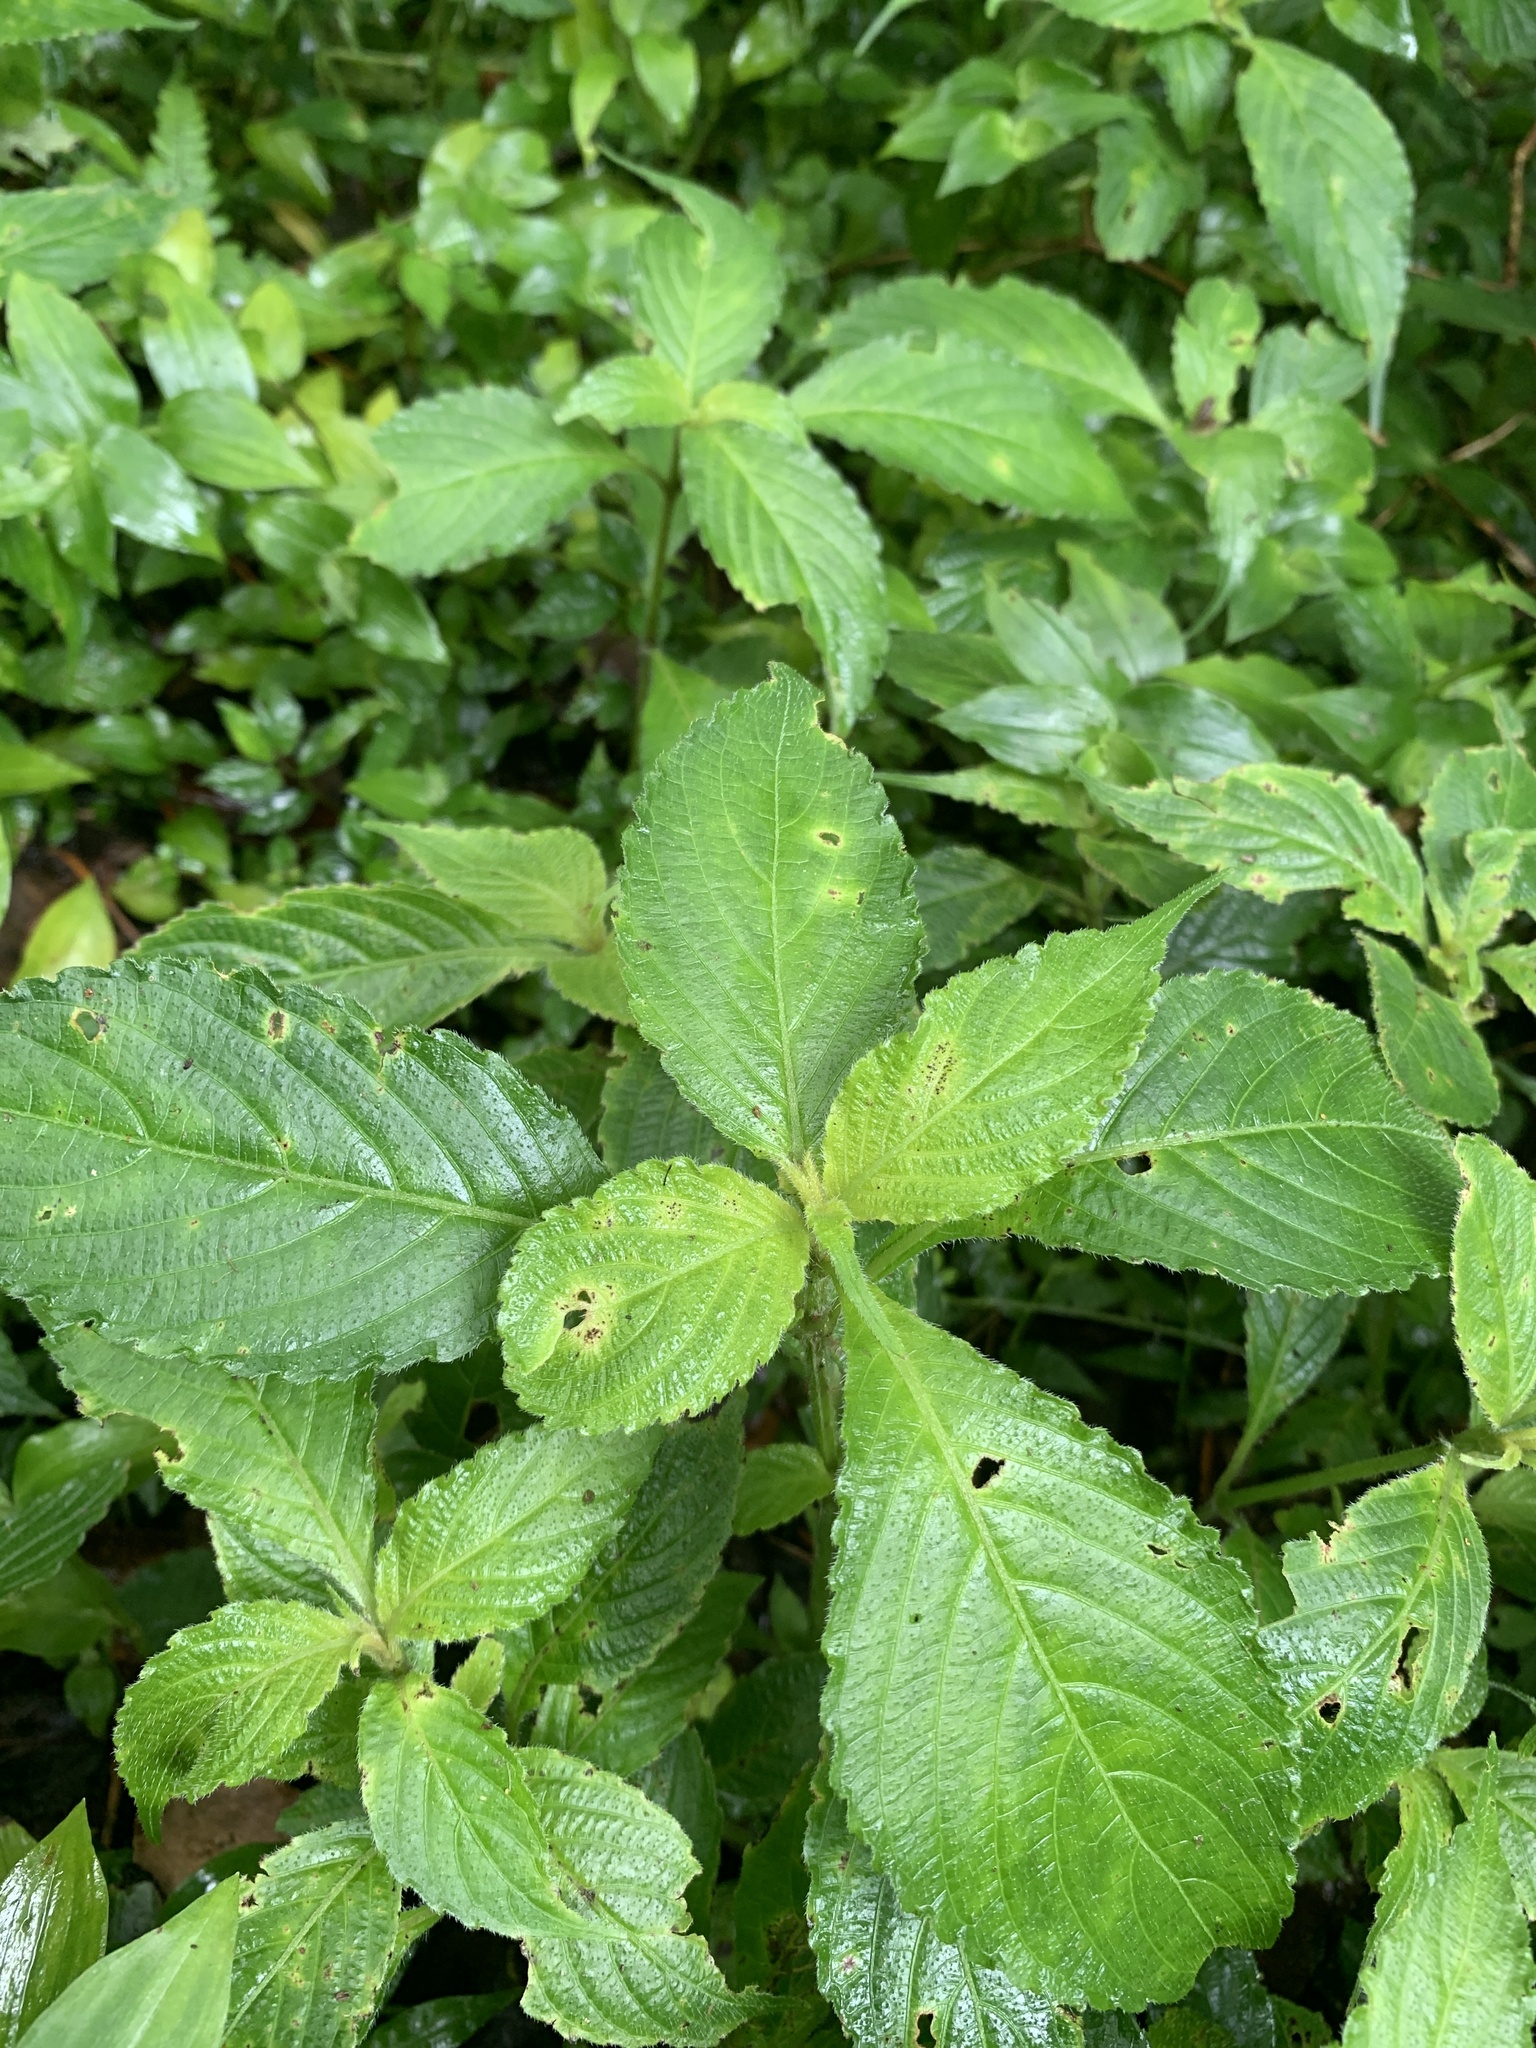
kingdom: Plantae
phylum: Tracheophyta
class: Magnoliopsida
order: Lamiales
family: Acanthaceae
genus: Strobilanthes
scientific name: Strobilanthes formosana
